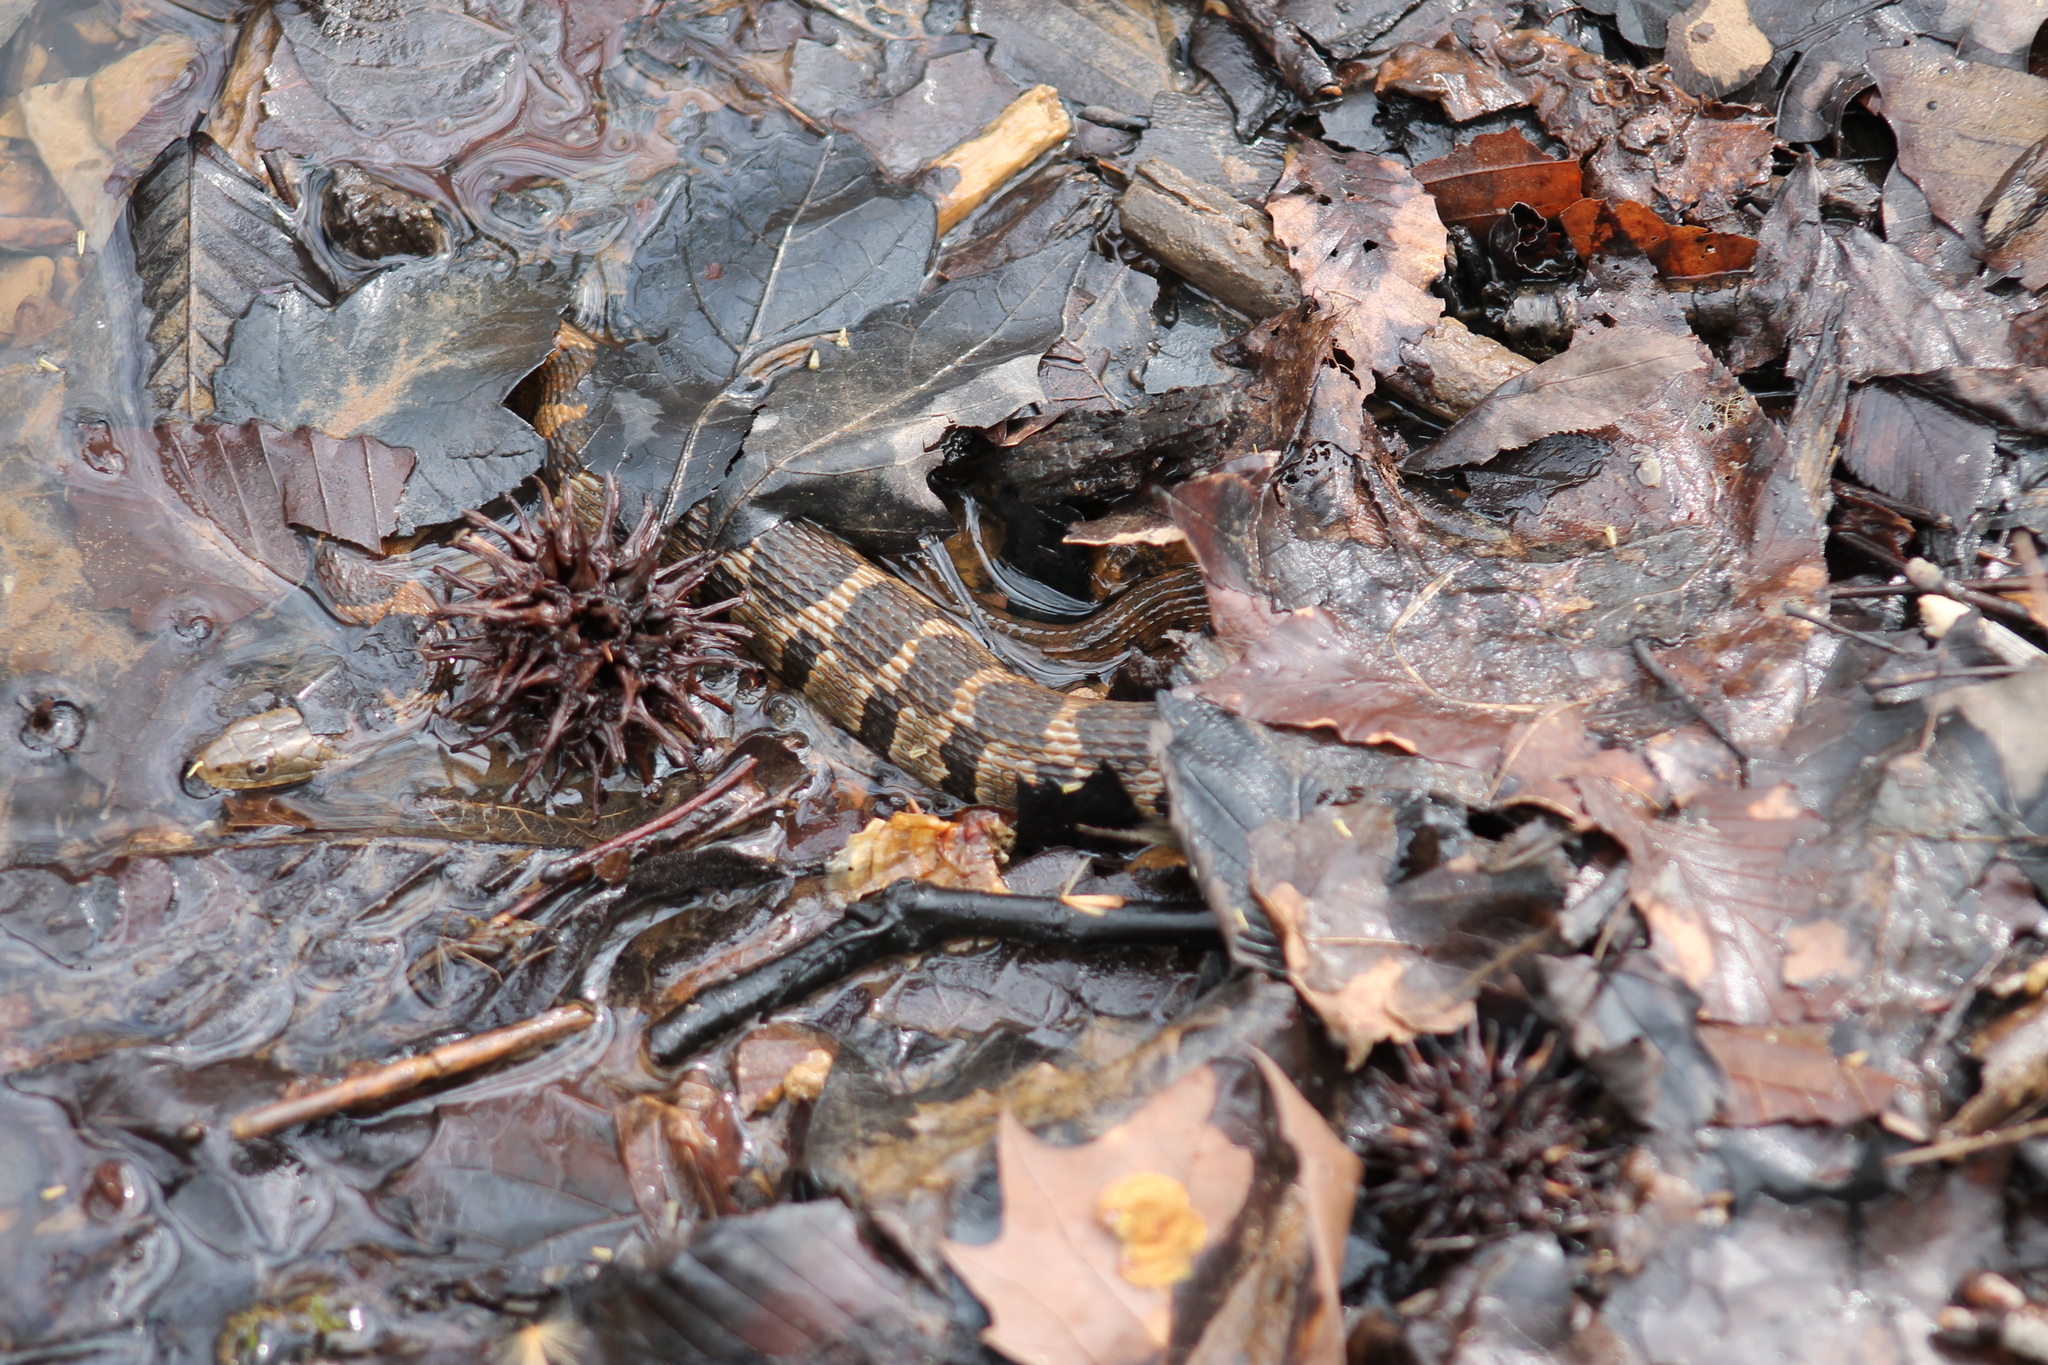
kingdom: Animalia
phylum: Chordata
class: Squamata
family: Colubridae
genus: Nerodia
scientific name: Nerodia sipedon
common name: Northern water snake
